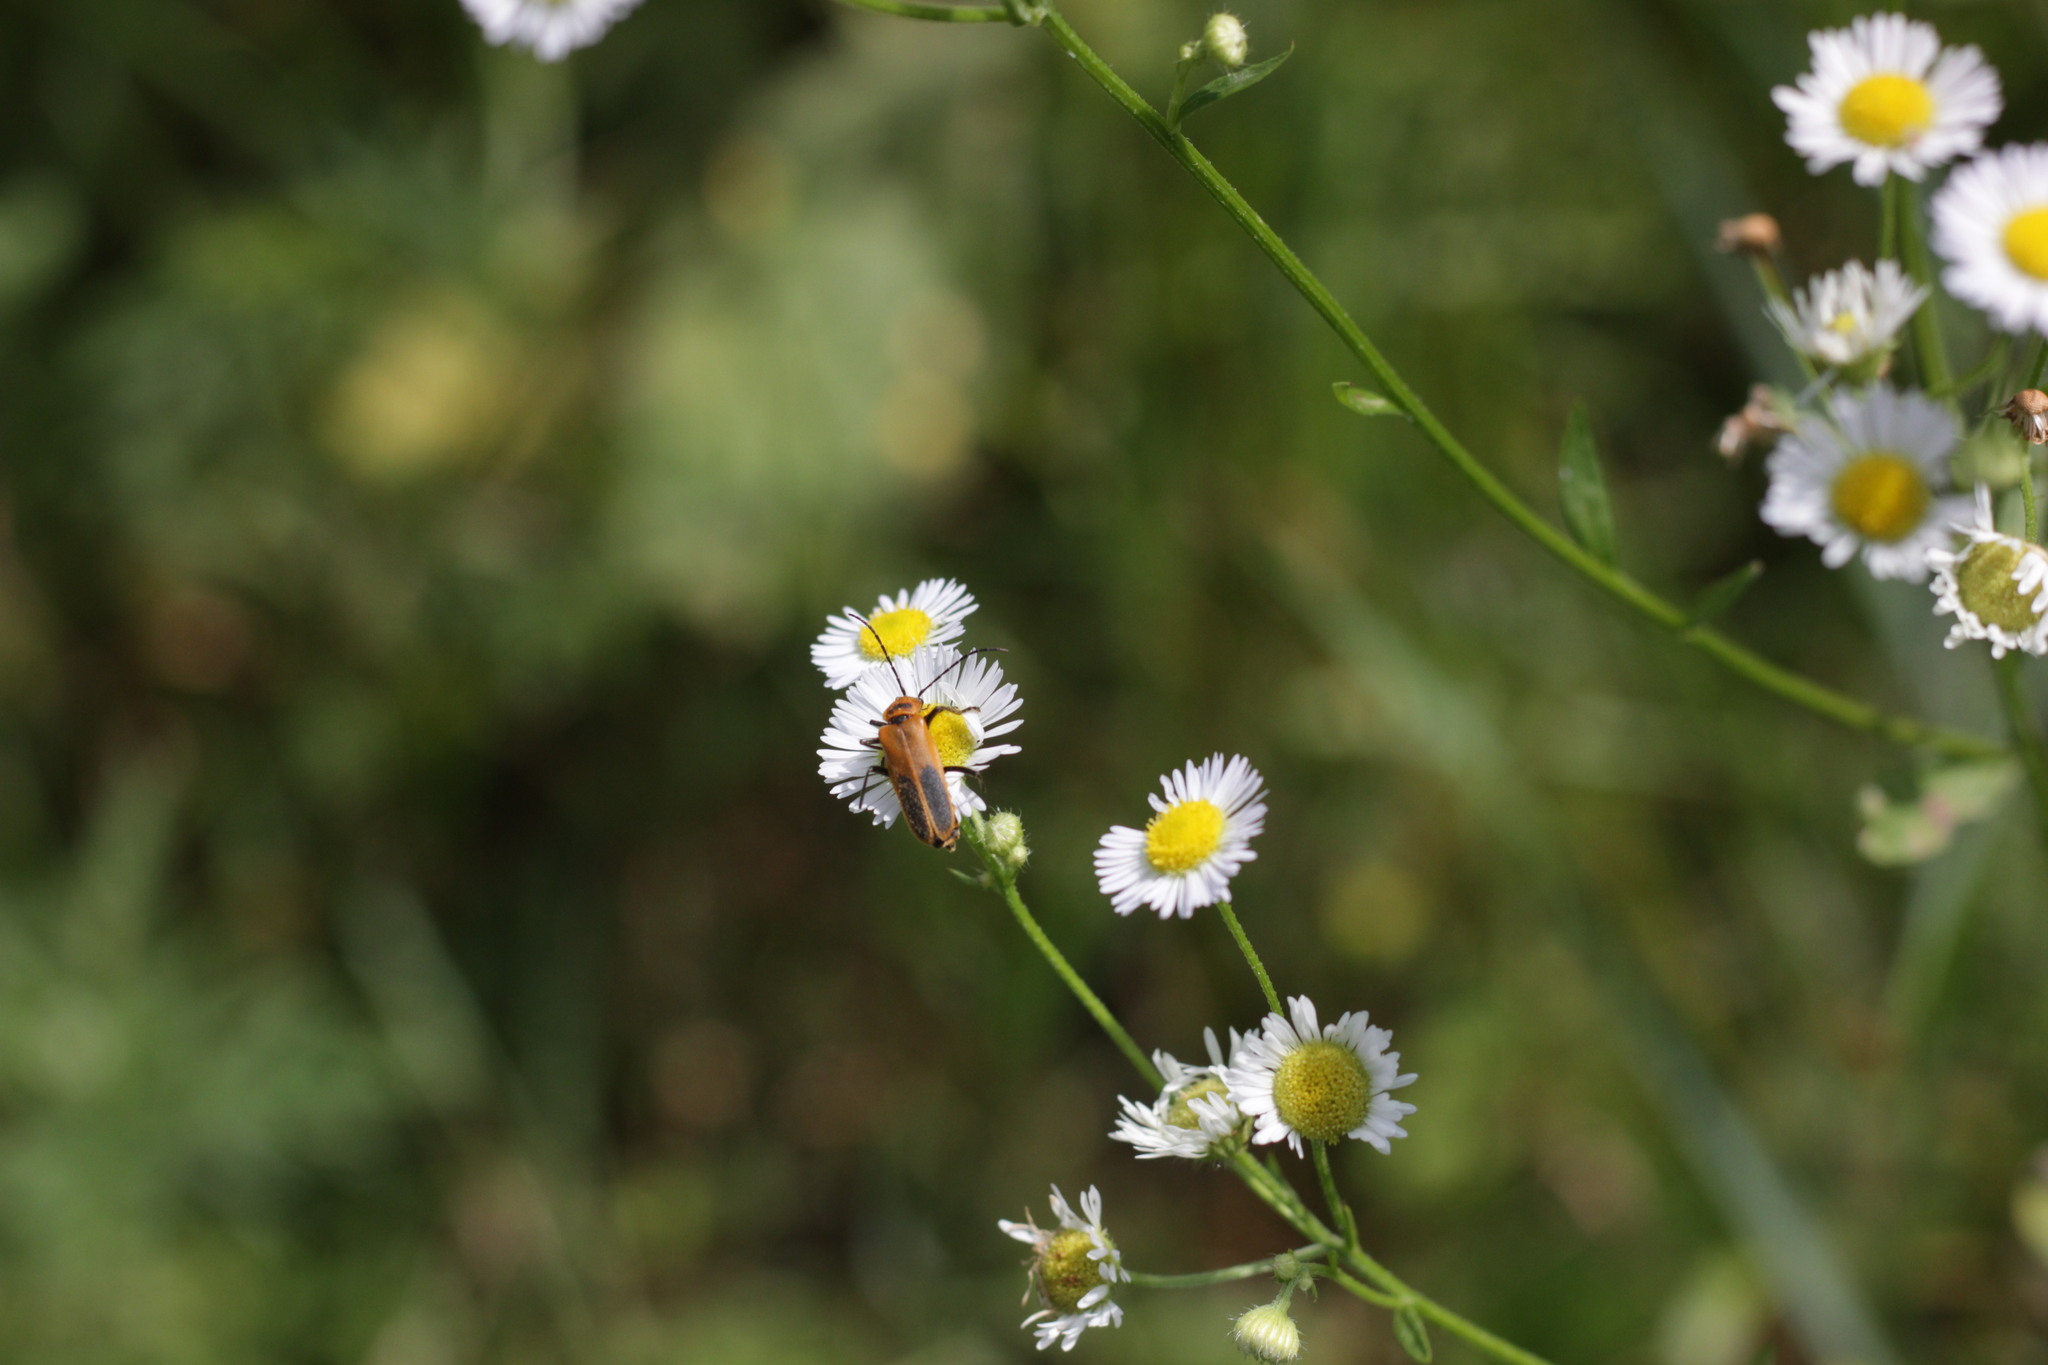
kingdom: Animalia
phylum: Arthropoda
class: Insecta
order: Coleoptera
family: Cantharidae
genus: Chauliognathus
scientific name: Chauliognathus pensylvanicus
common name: Goldenrod soldier beetle
